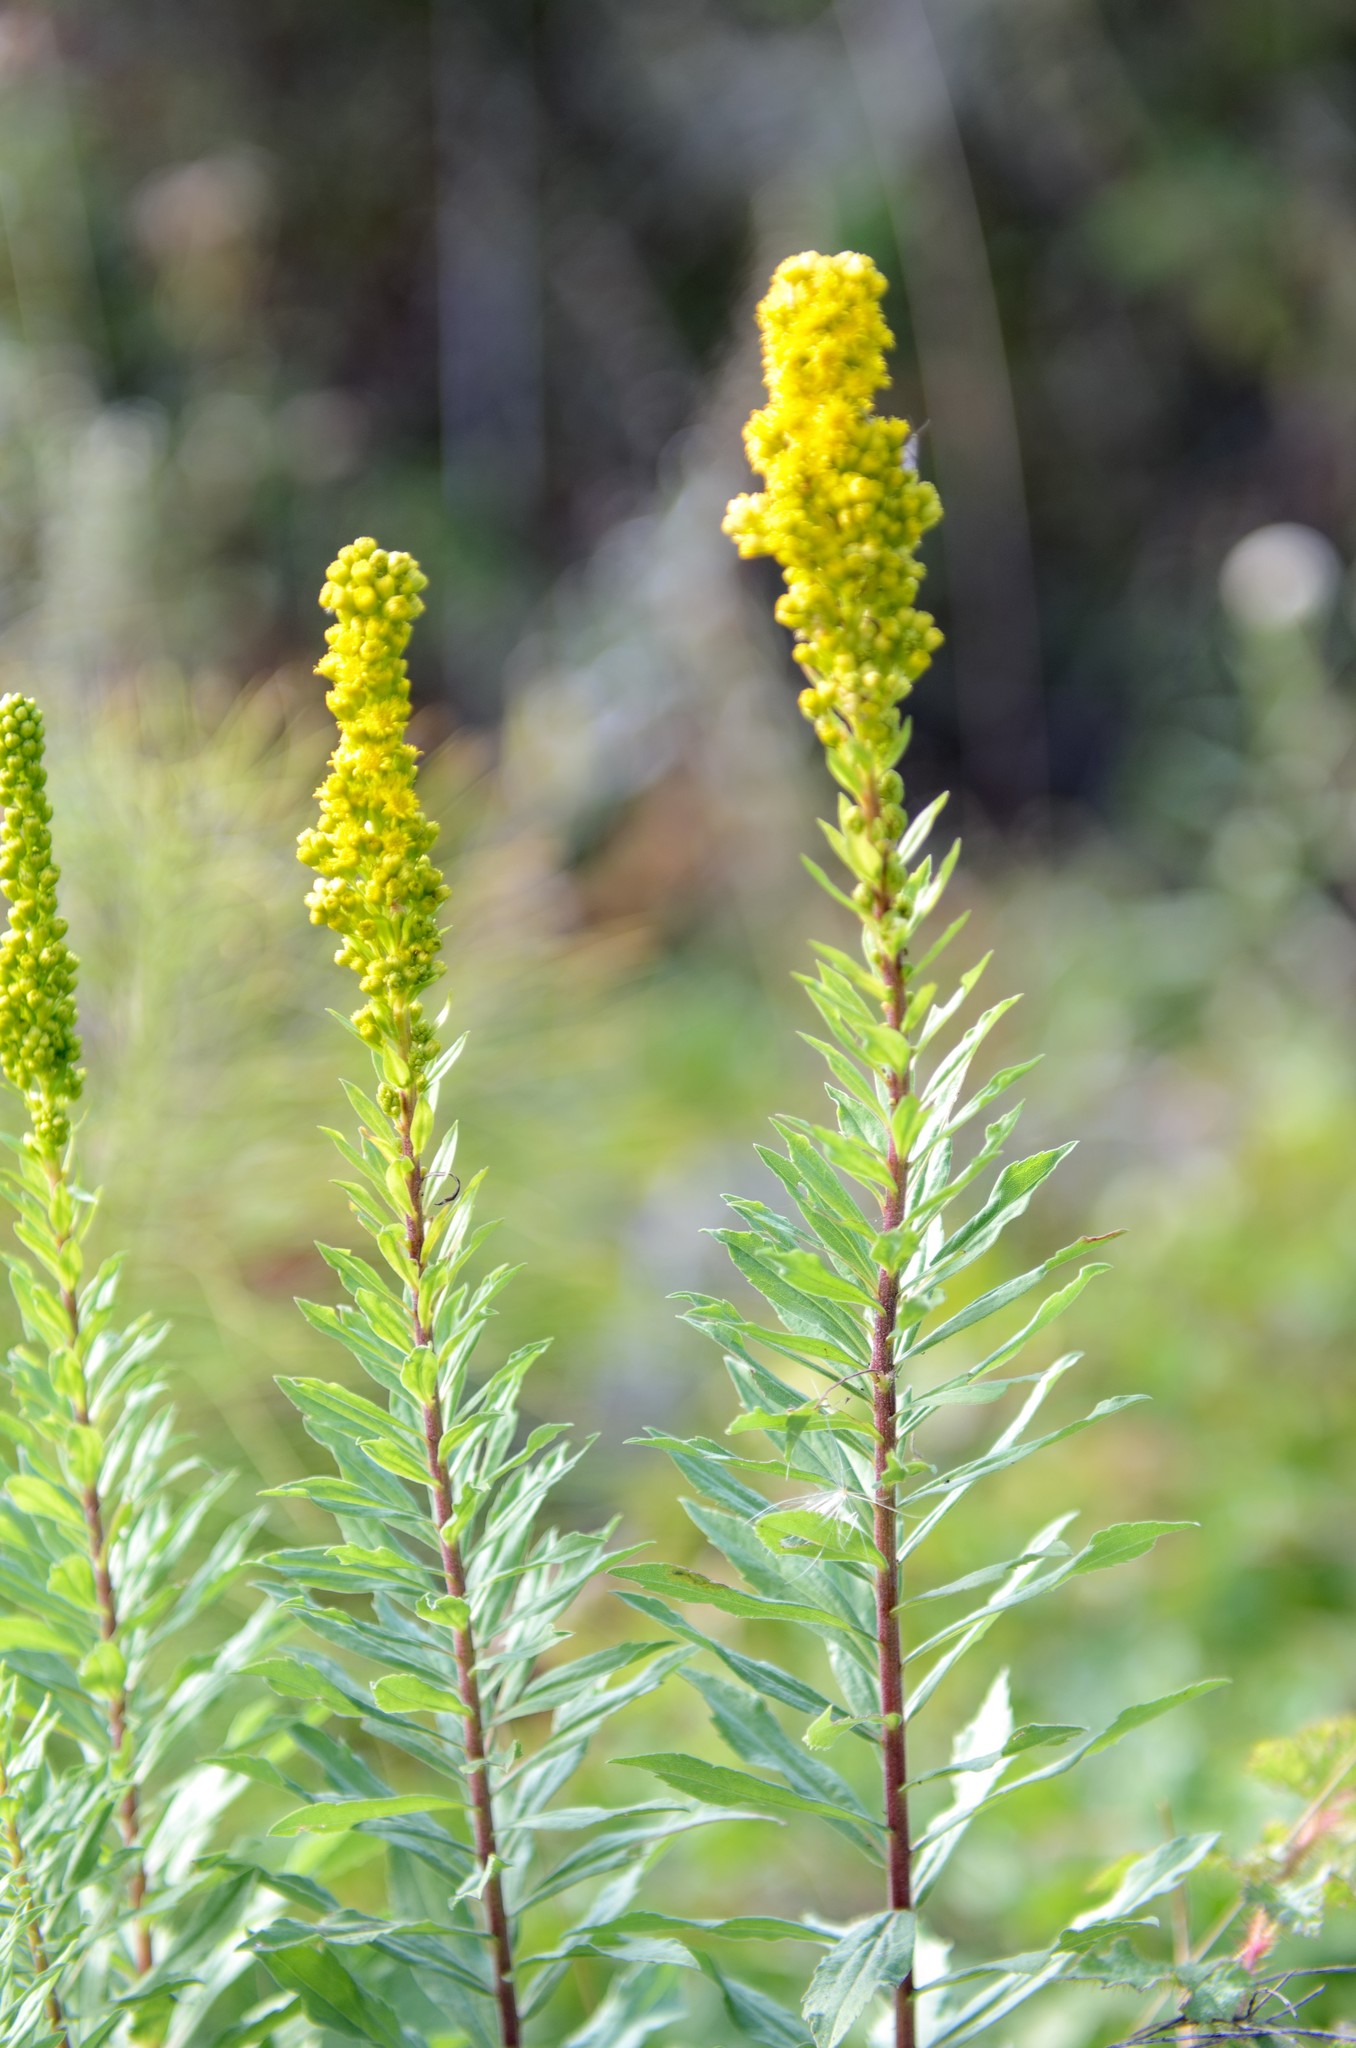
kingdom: Plantae
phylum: Tracheophyta
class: Magnoliopsida
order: Asterales
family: Asteraceae
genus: Solidago
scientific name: Solidago elongata
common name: Cascade canada goldenrod
